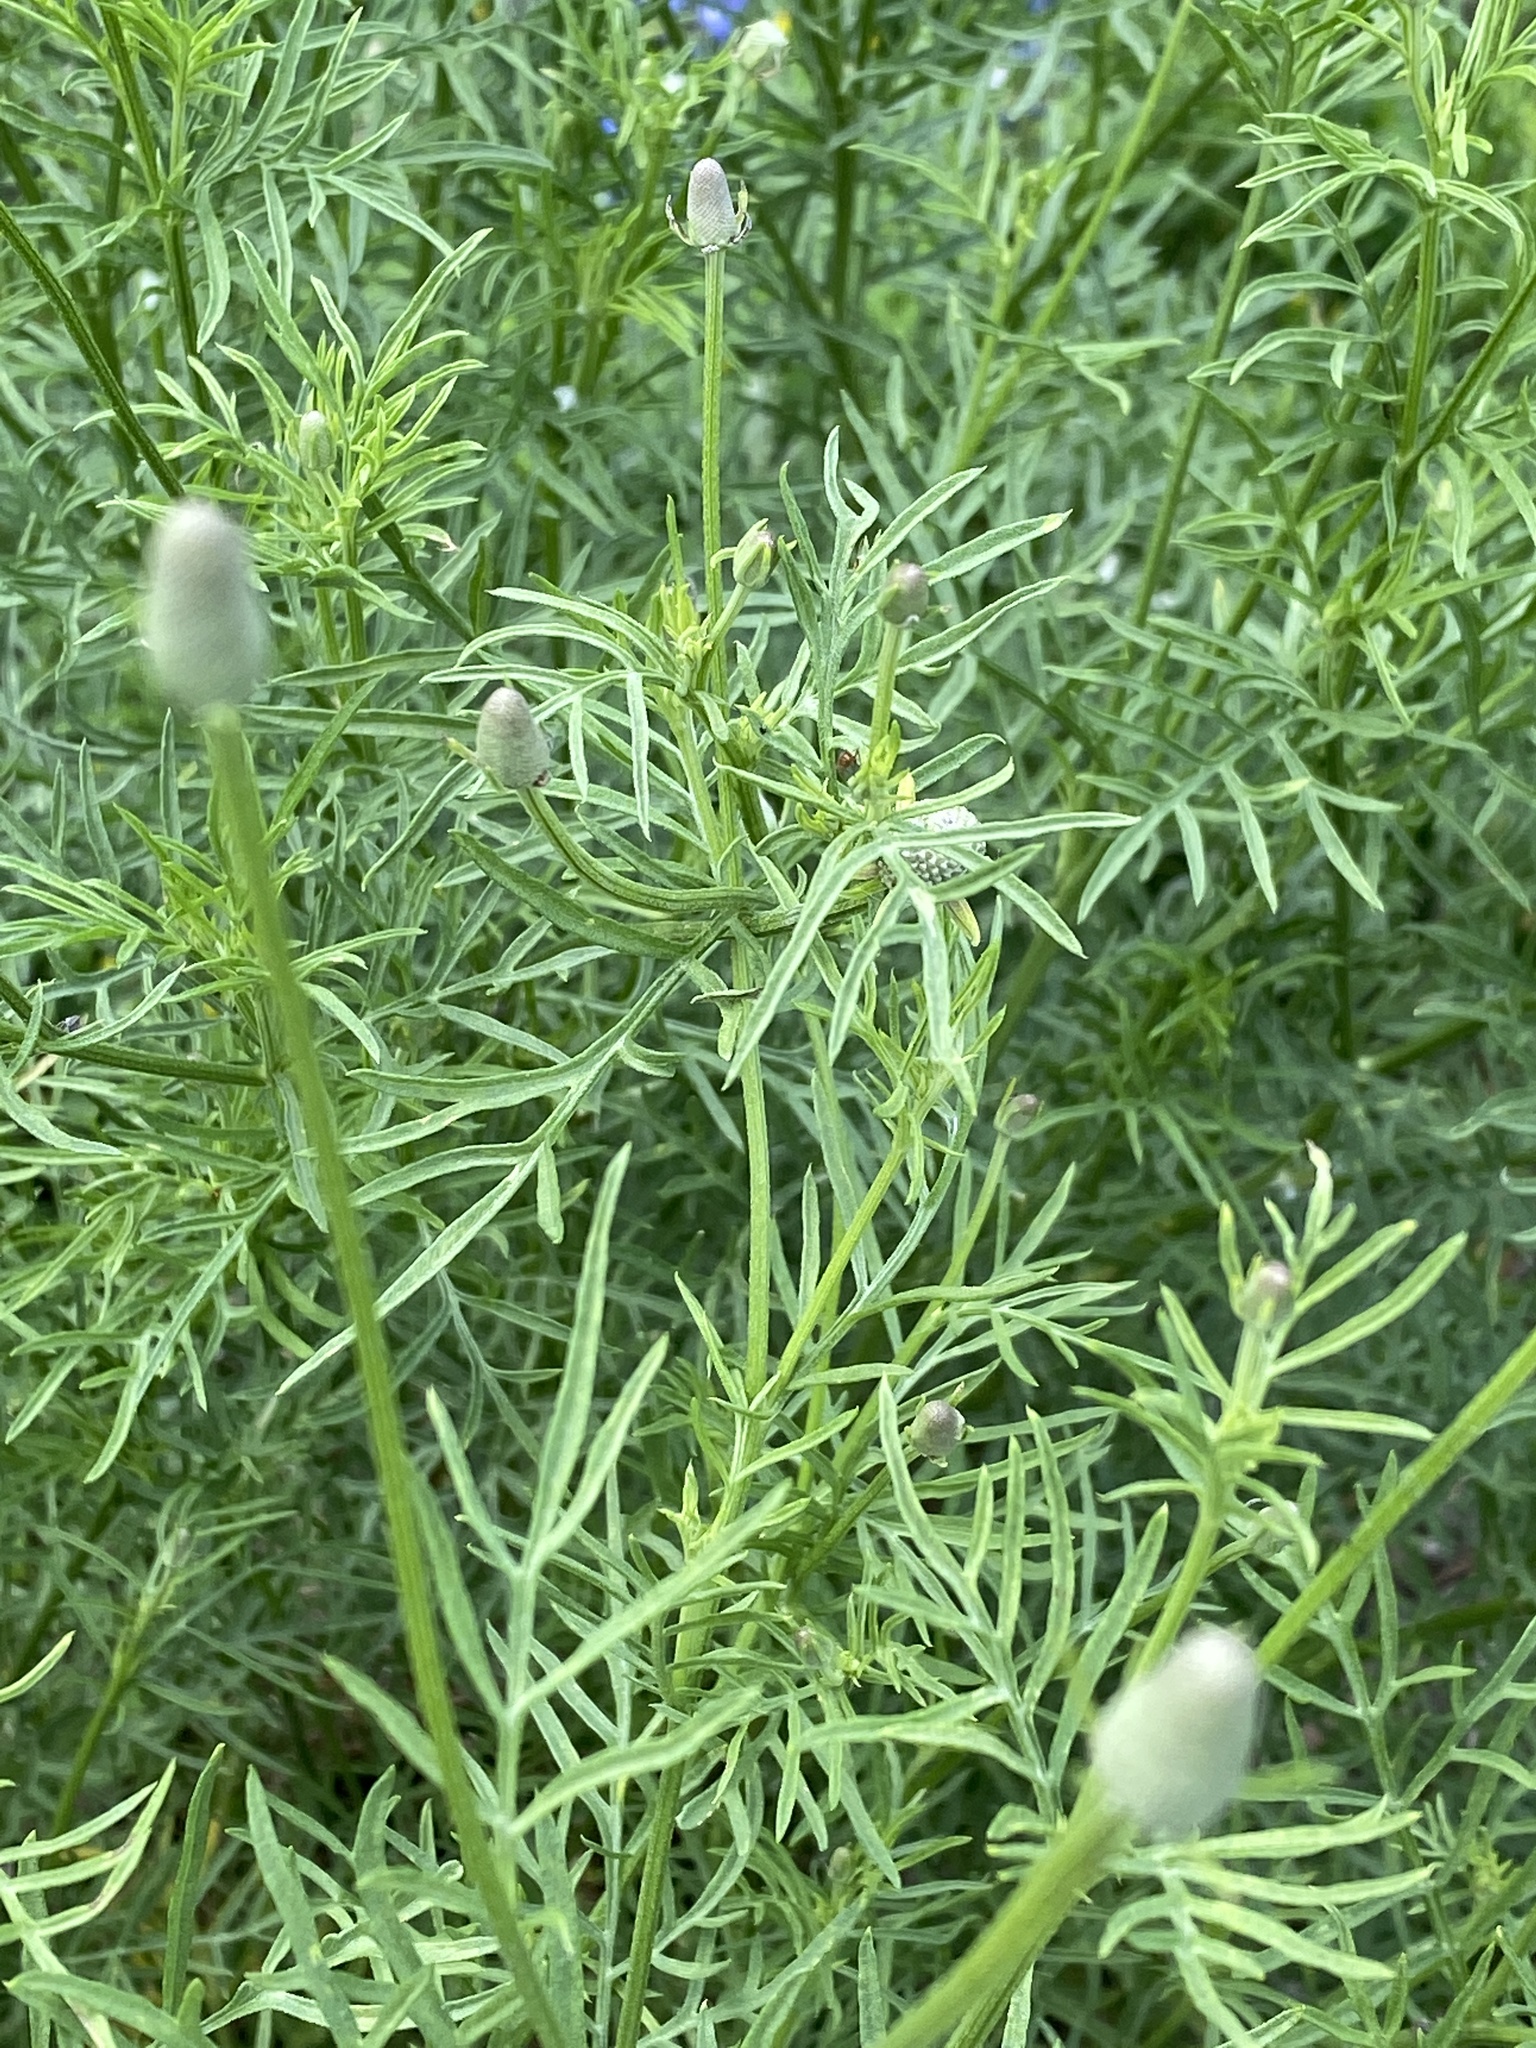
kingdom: Plantae
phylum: Tracheophyta
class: Magnoliopsida
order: Asterales
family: Asteraceae
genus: Ratibida
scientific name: Ratibida columnifera
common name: Prairie coneflower
